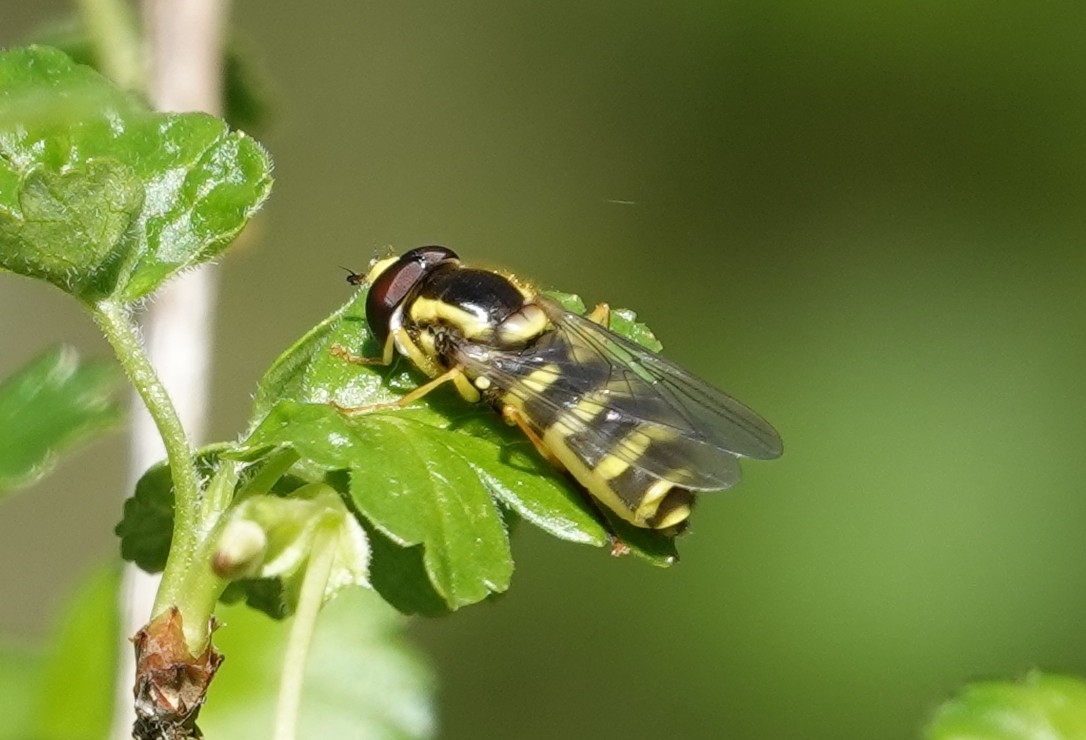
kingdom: Animalia
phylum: Arthropoda
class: Insecta
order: Diptera
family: Syrphidae
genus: Philhelius
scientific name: Philhelius flavipes
